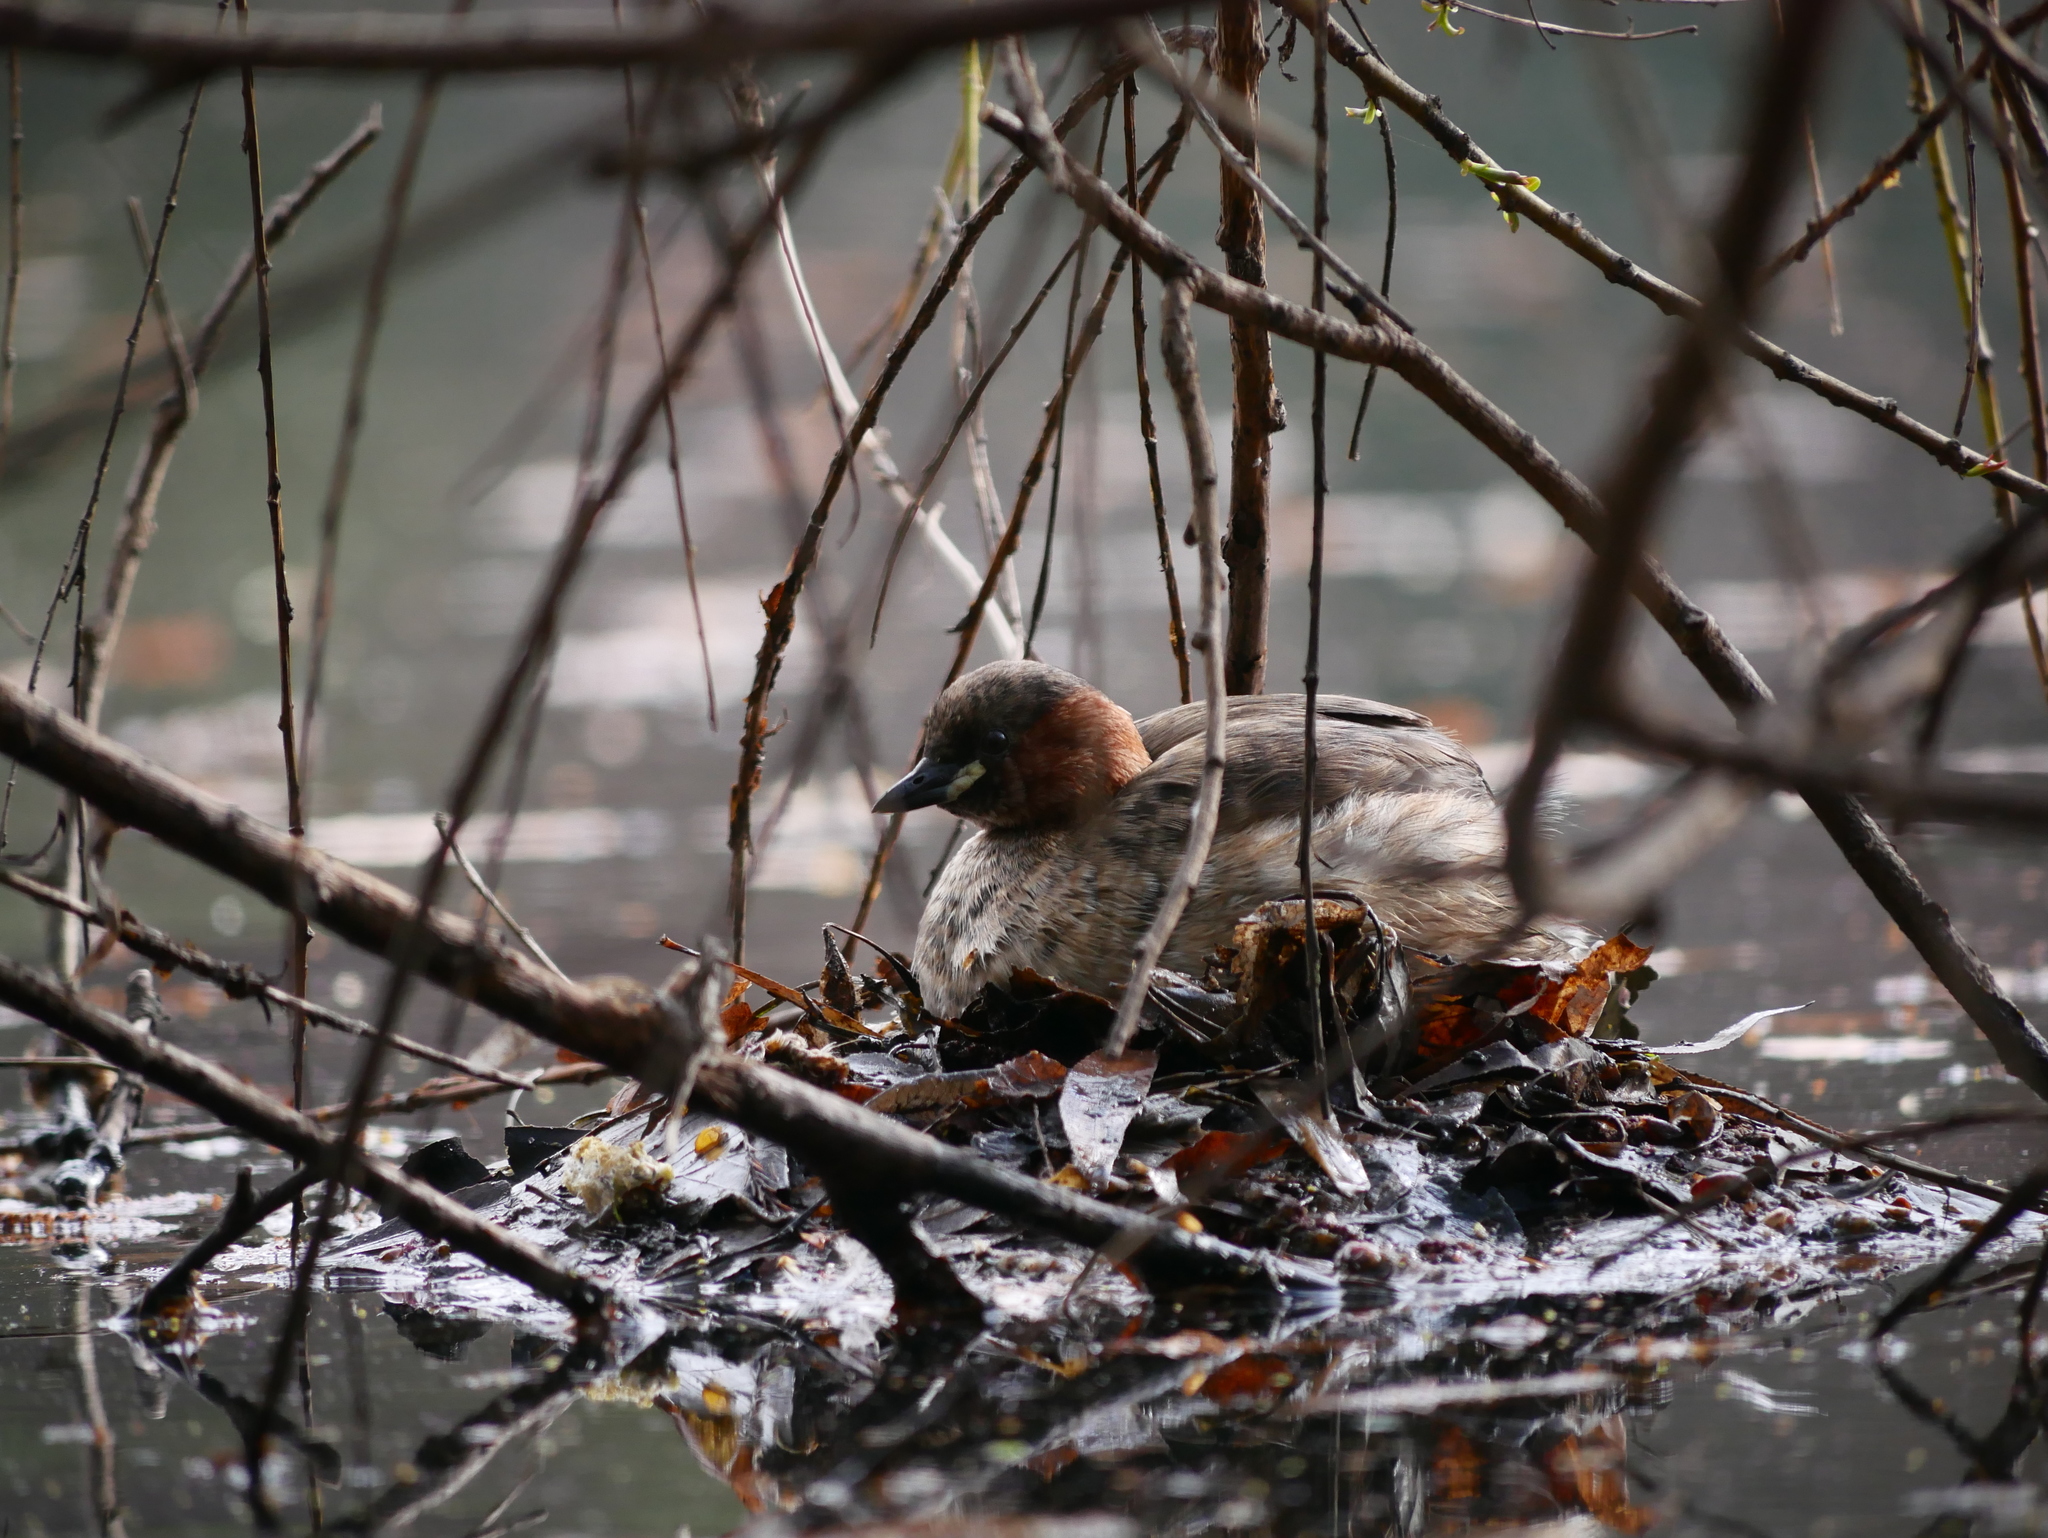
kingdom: Animalia
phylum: Chordata
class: Aves
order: Podicipediformes
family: Podicipedidae
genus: Tachybaptus
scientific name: Tachybaptus ruficollis
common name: Little grebe
